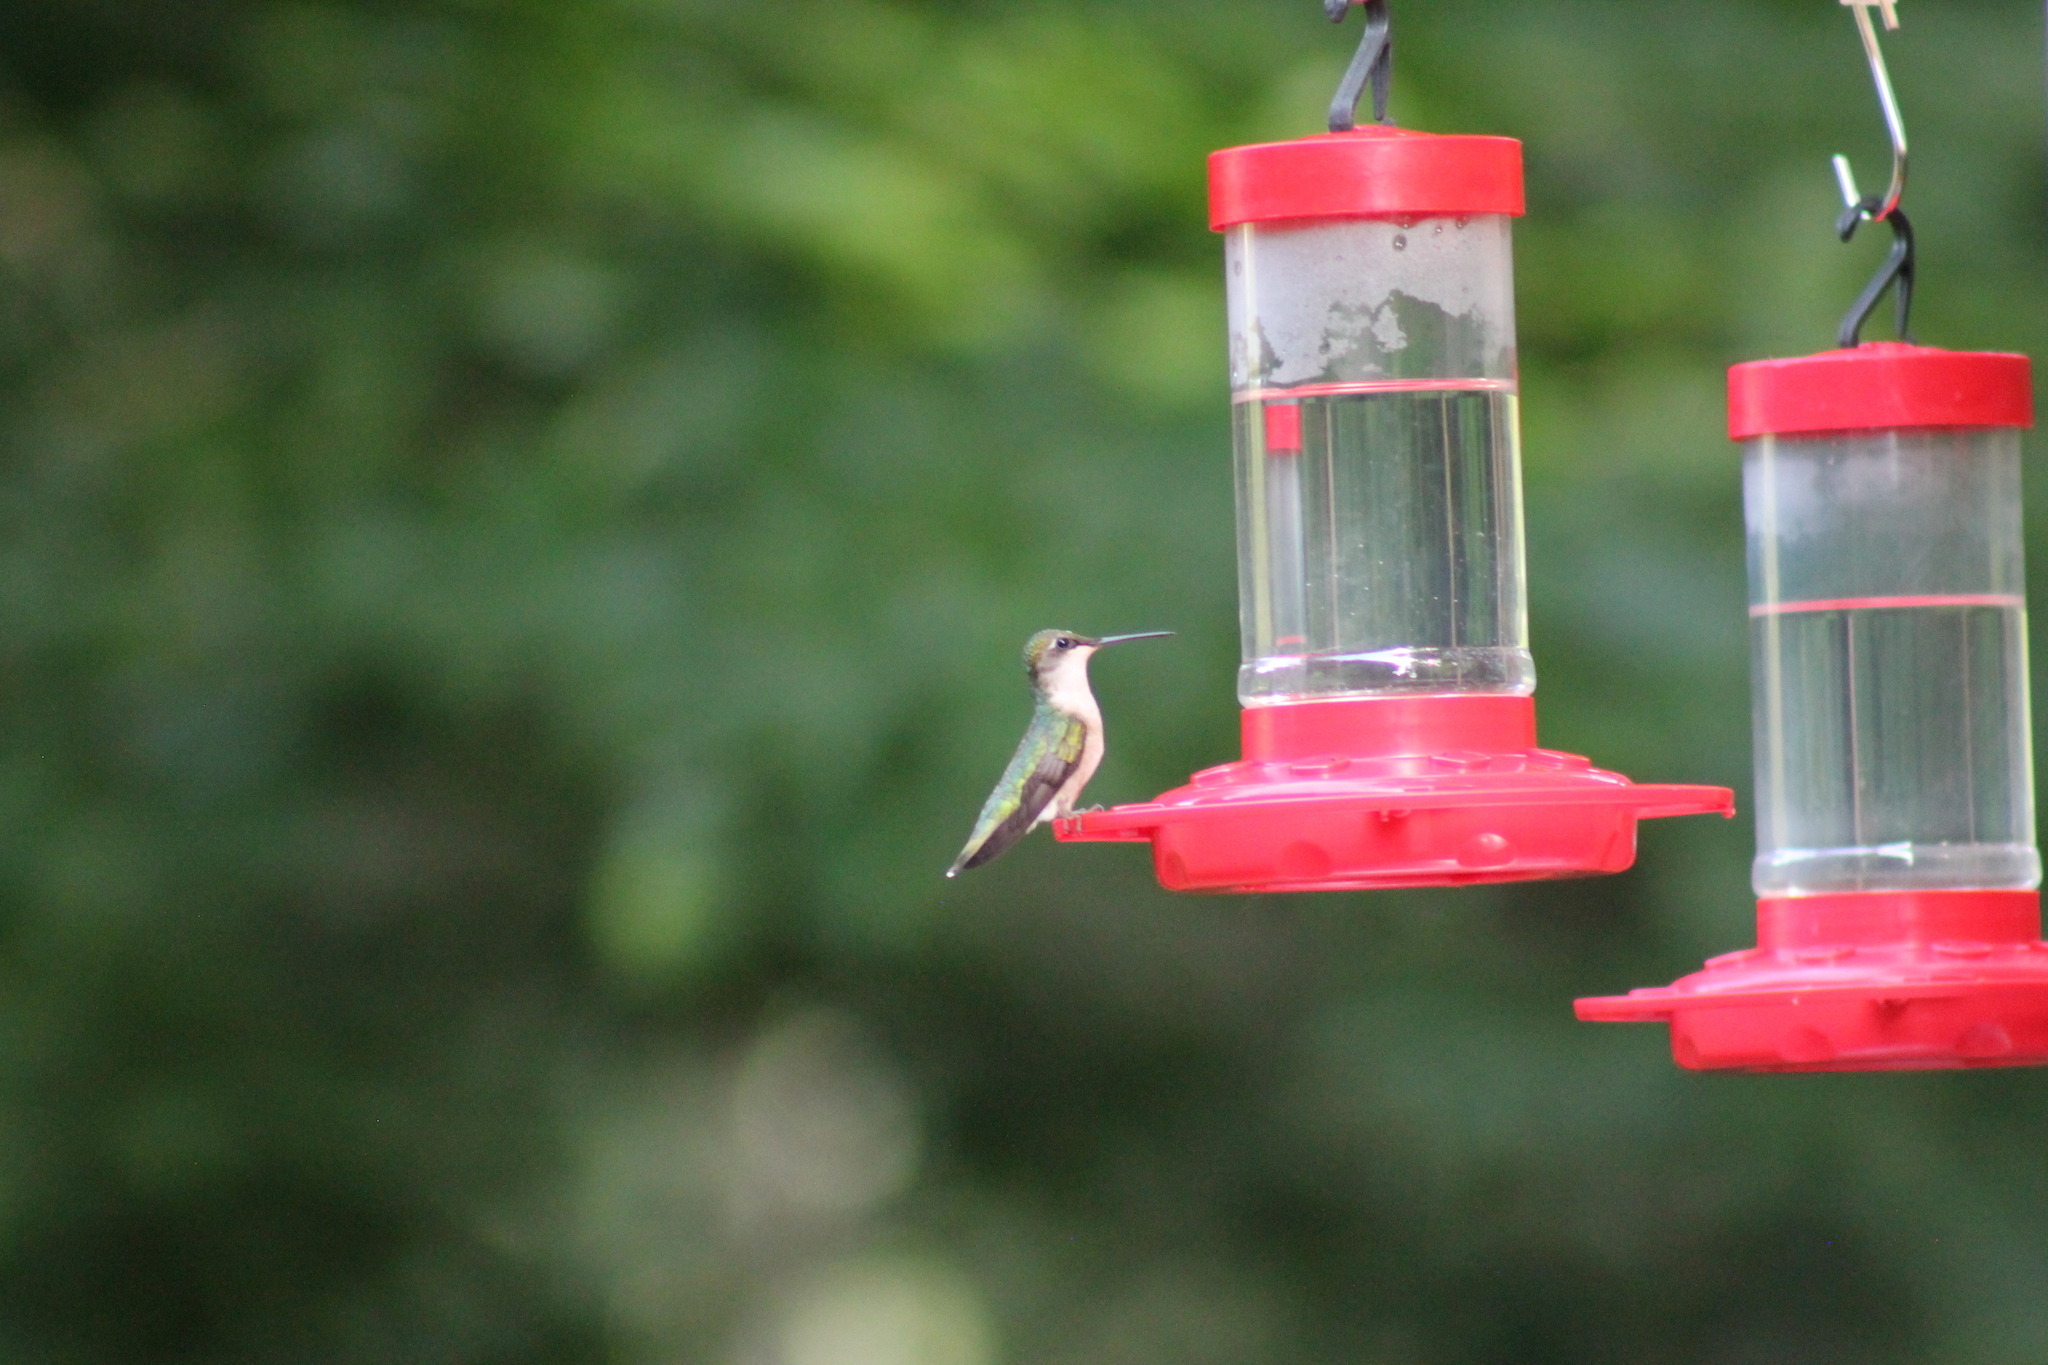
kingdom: Animalia
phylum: Chordata
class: Aves
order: Apodiformes
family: Trochilidae
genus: Archilochus
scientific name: Archilochus colubris
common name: Ruby-throated hummingbird
